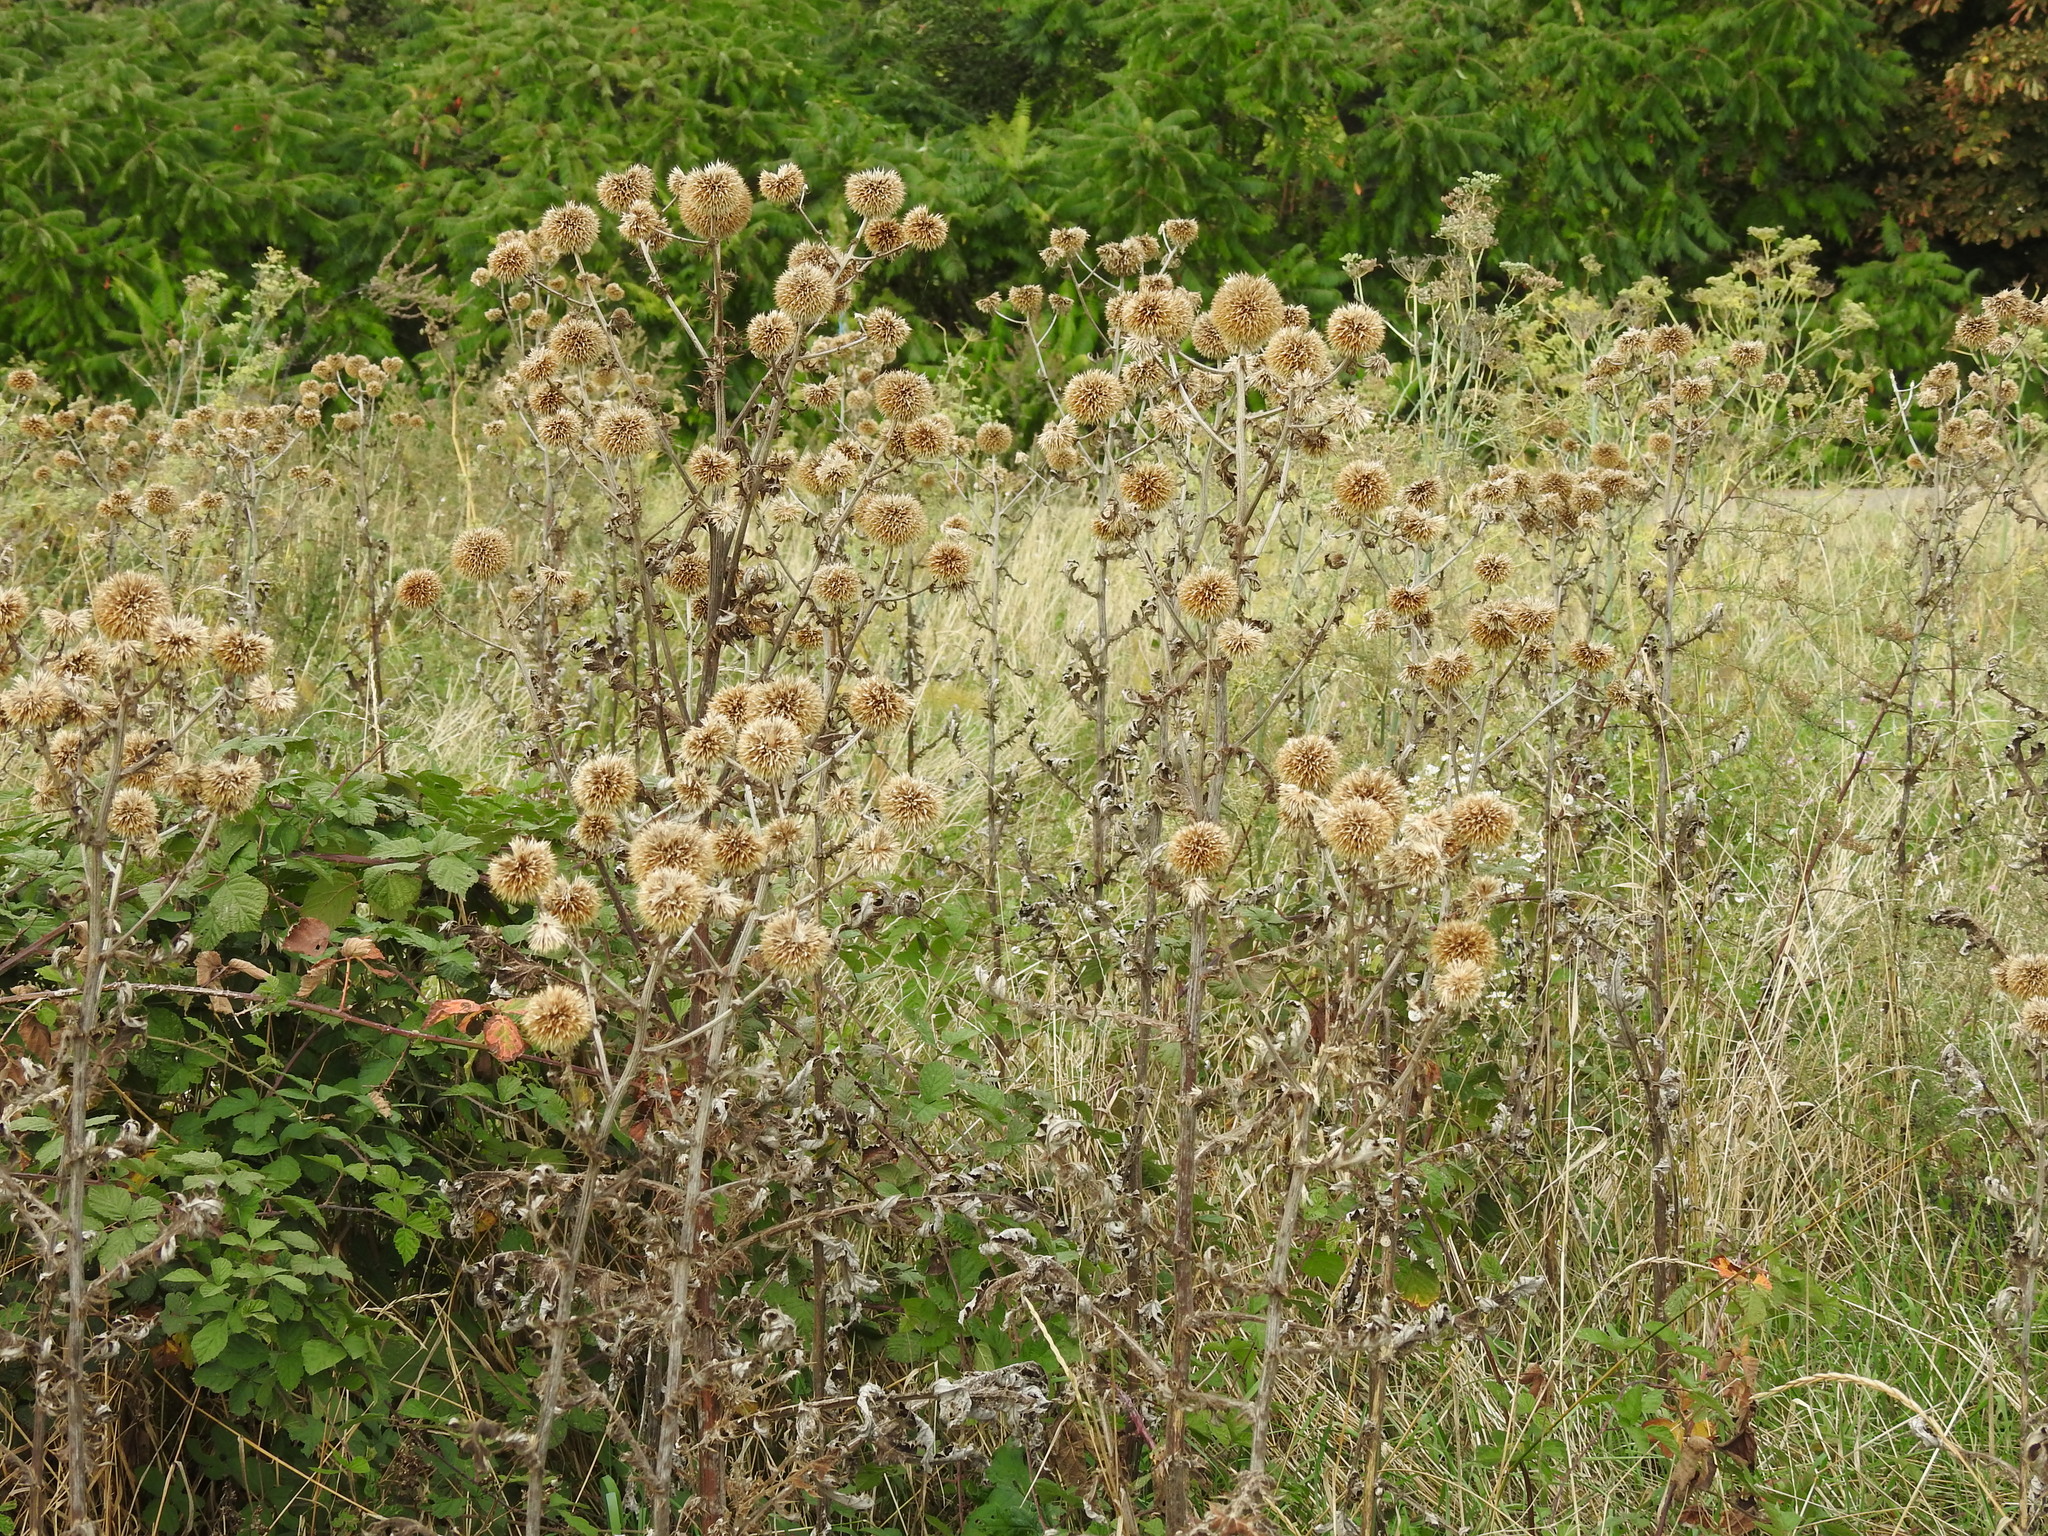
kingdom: Plantae
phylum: Tracheophyta
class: Magnoliopsida
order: Asterales
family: Asteraceae
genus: Echinops
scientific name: Echinops sphaerocephalus
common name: Glandular globe-thistle
